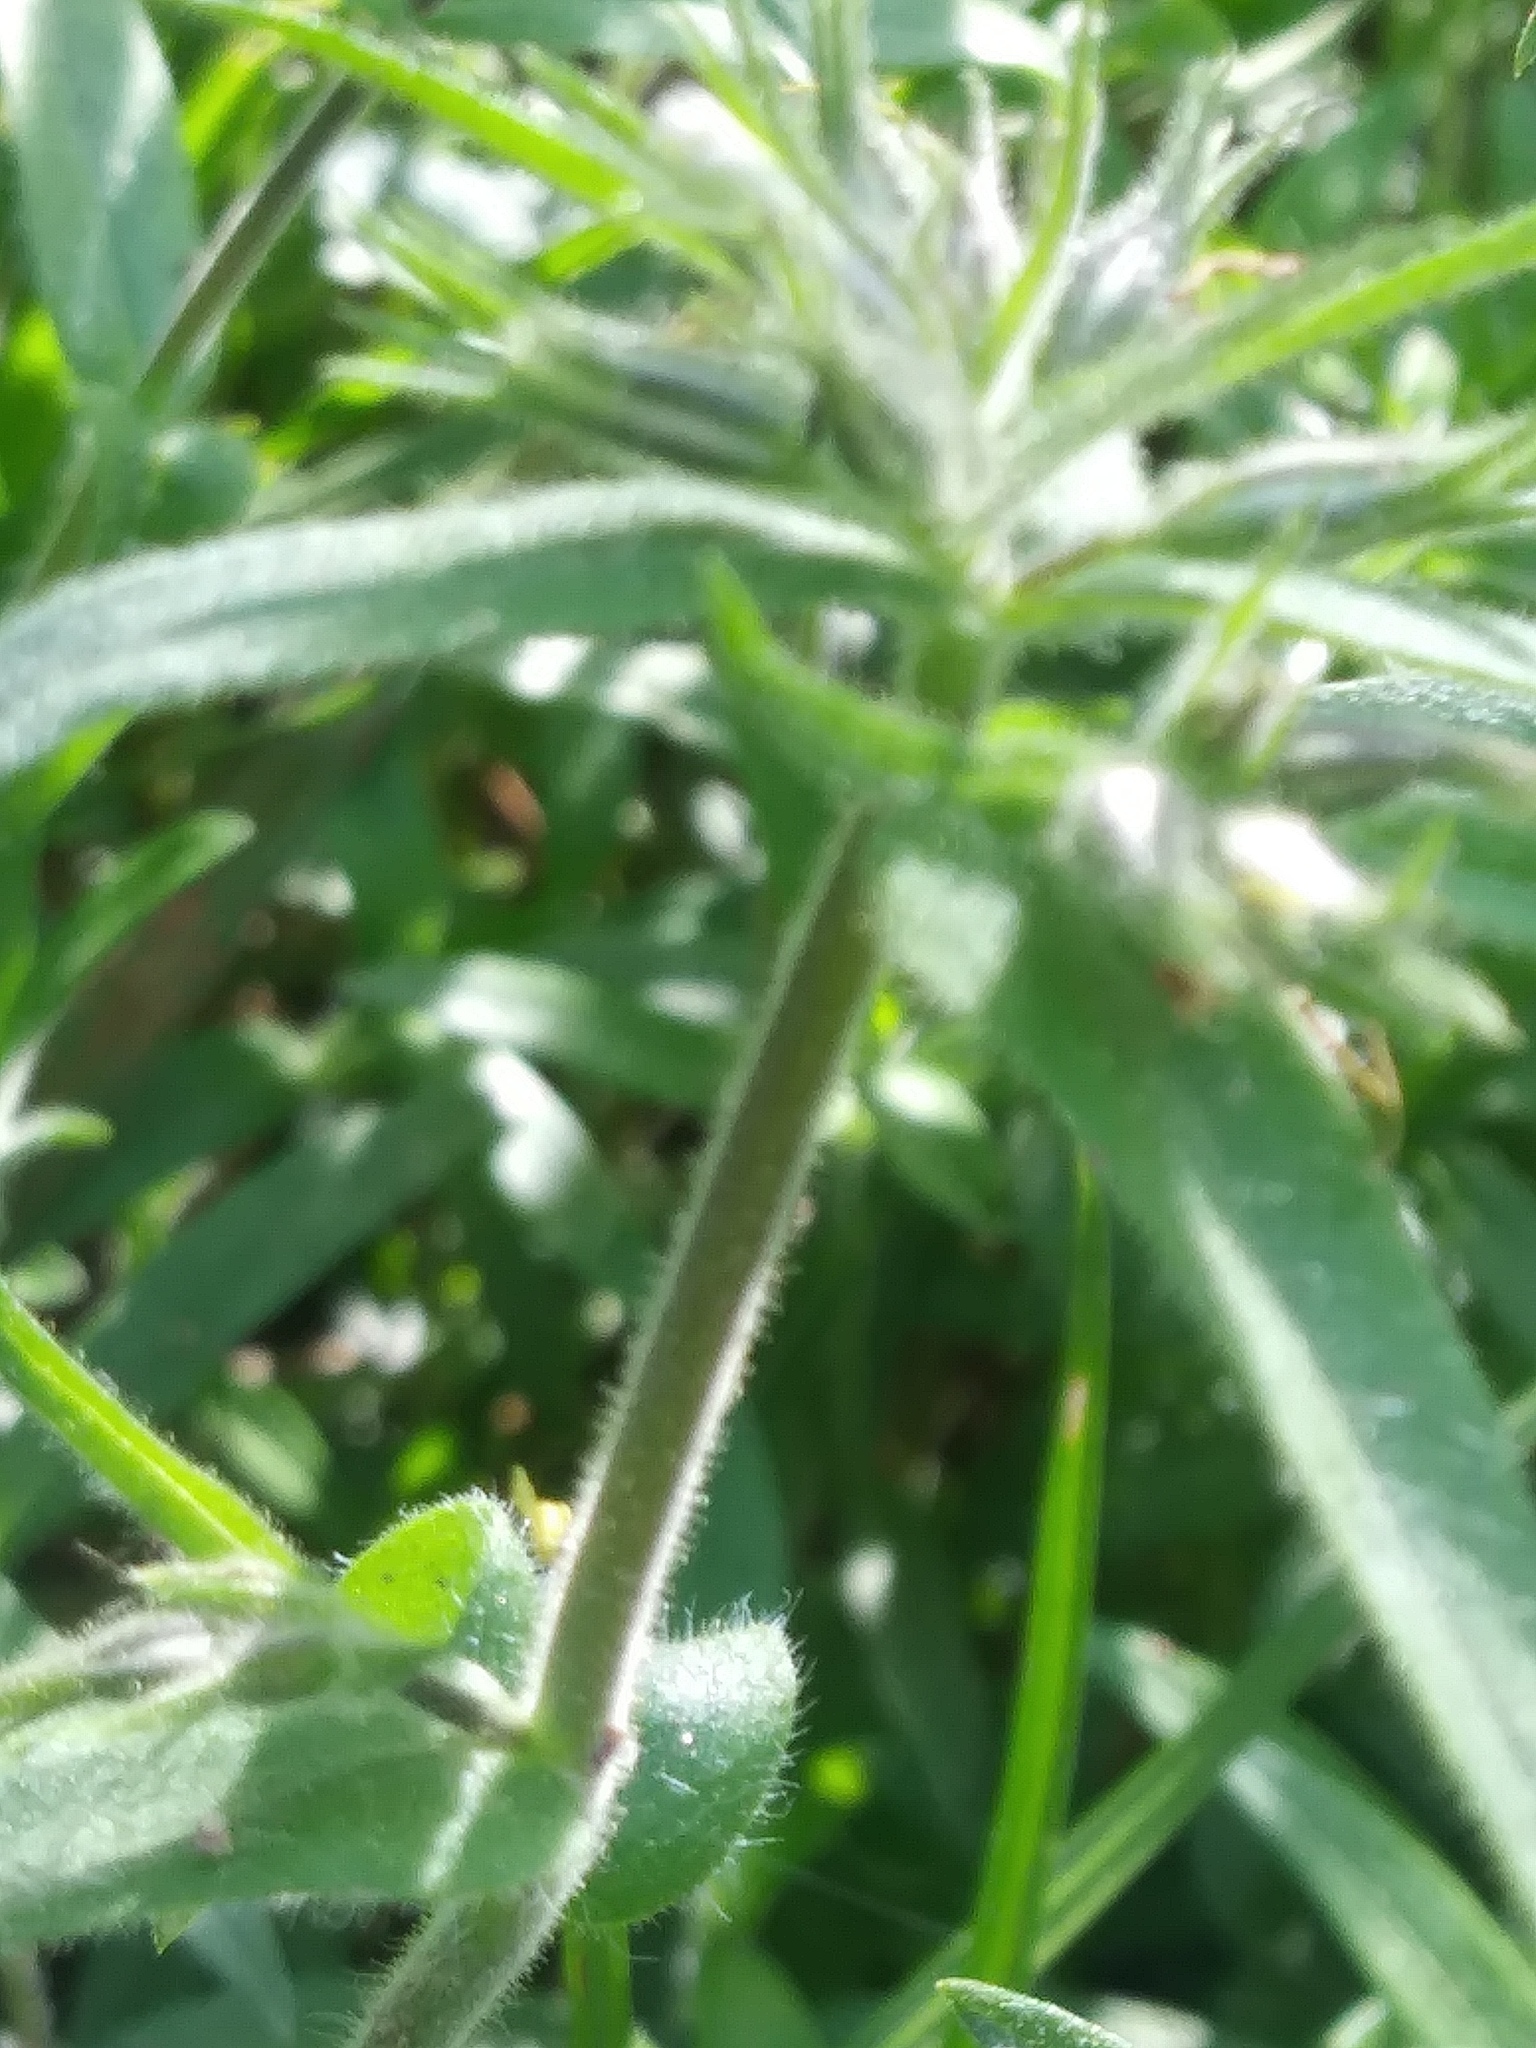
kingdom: Plantae
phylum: Tracheophyta
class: Magnoliopsida
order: Ericales
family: Polemoniaceae
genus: Phlox
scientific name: Phlox divaricata
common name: Blue phlox
